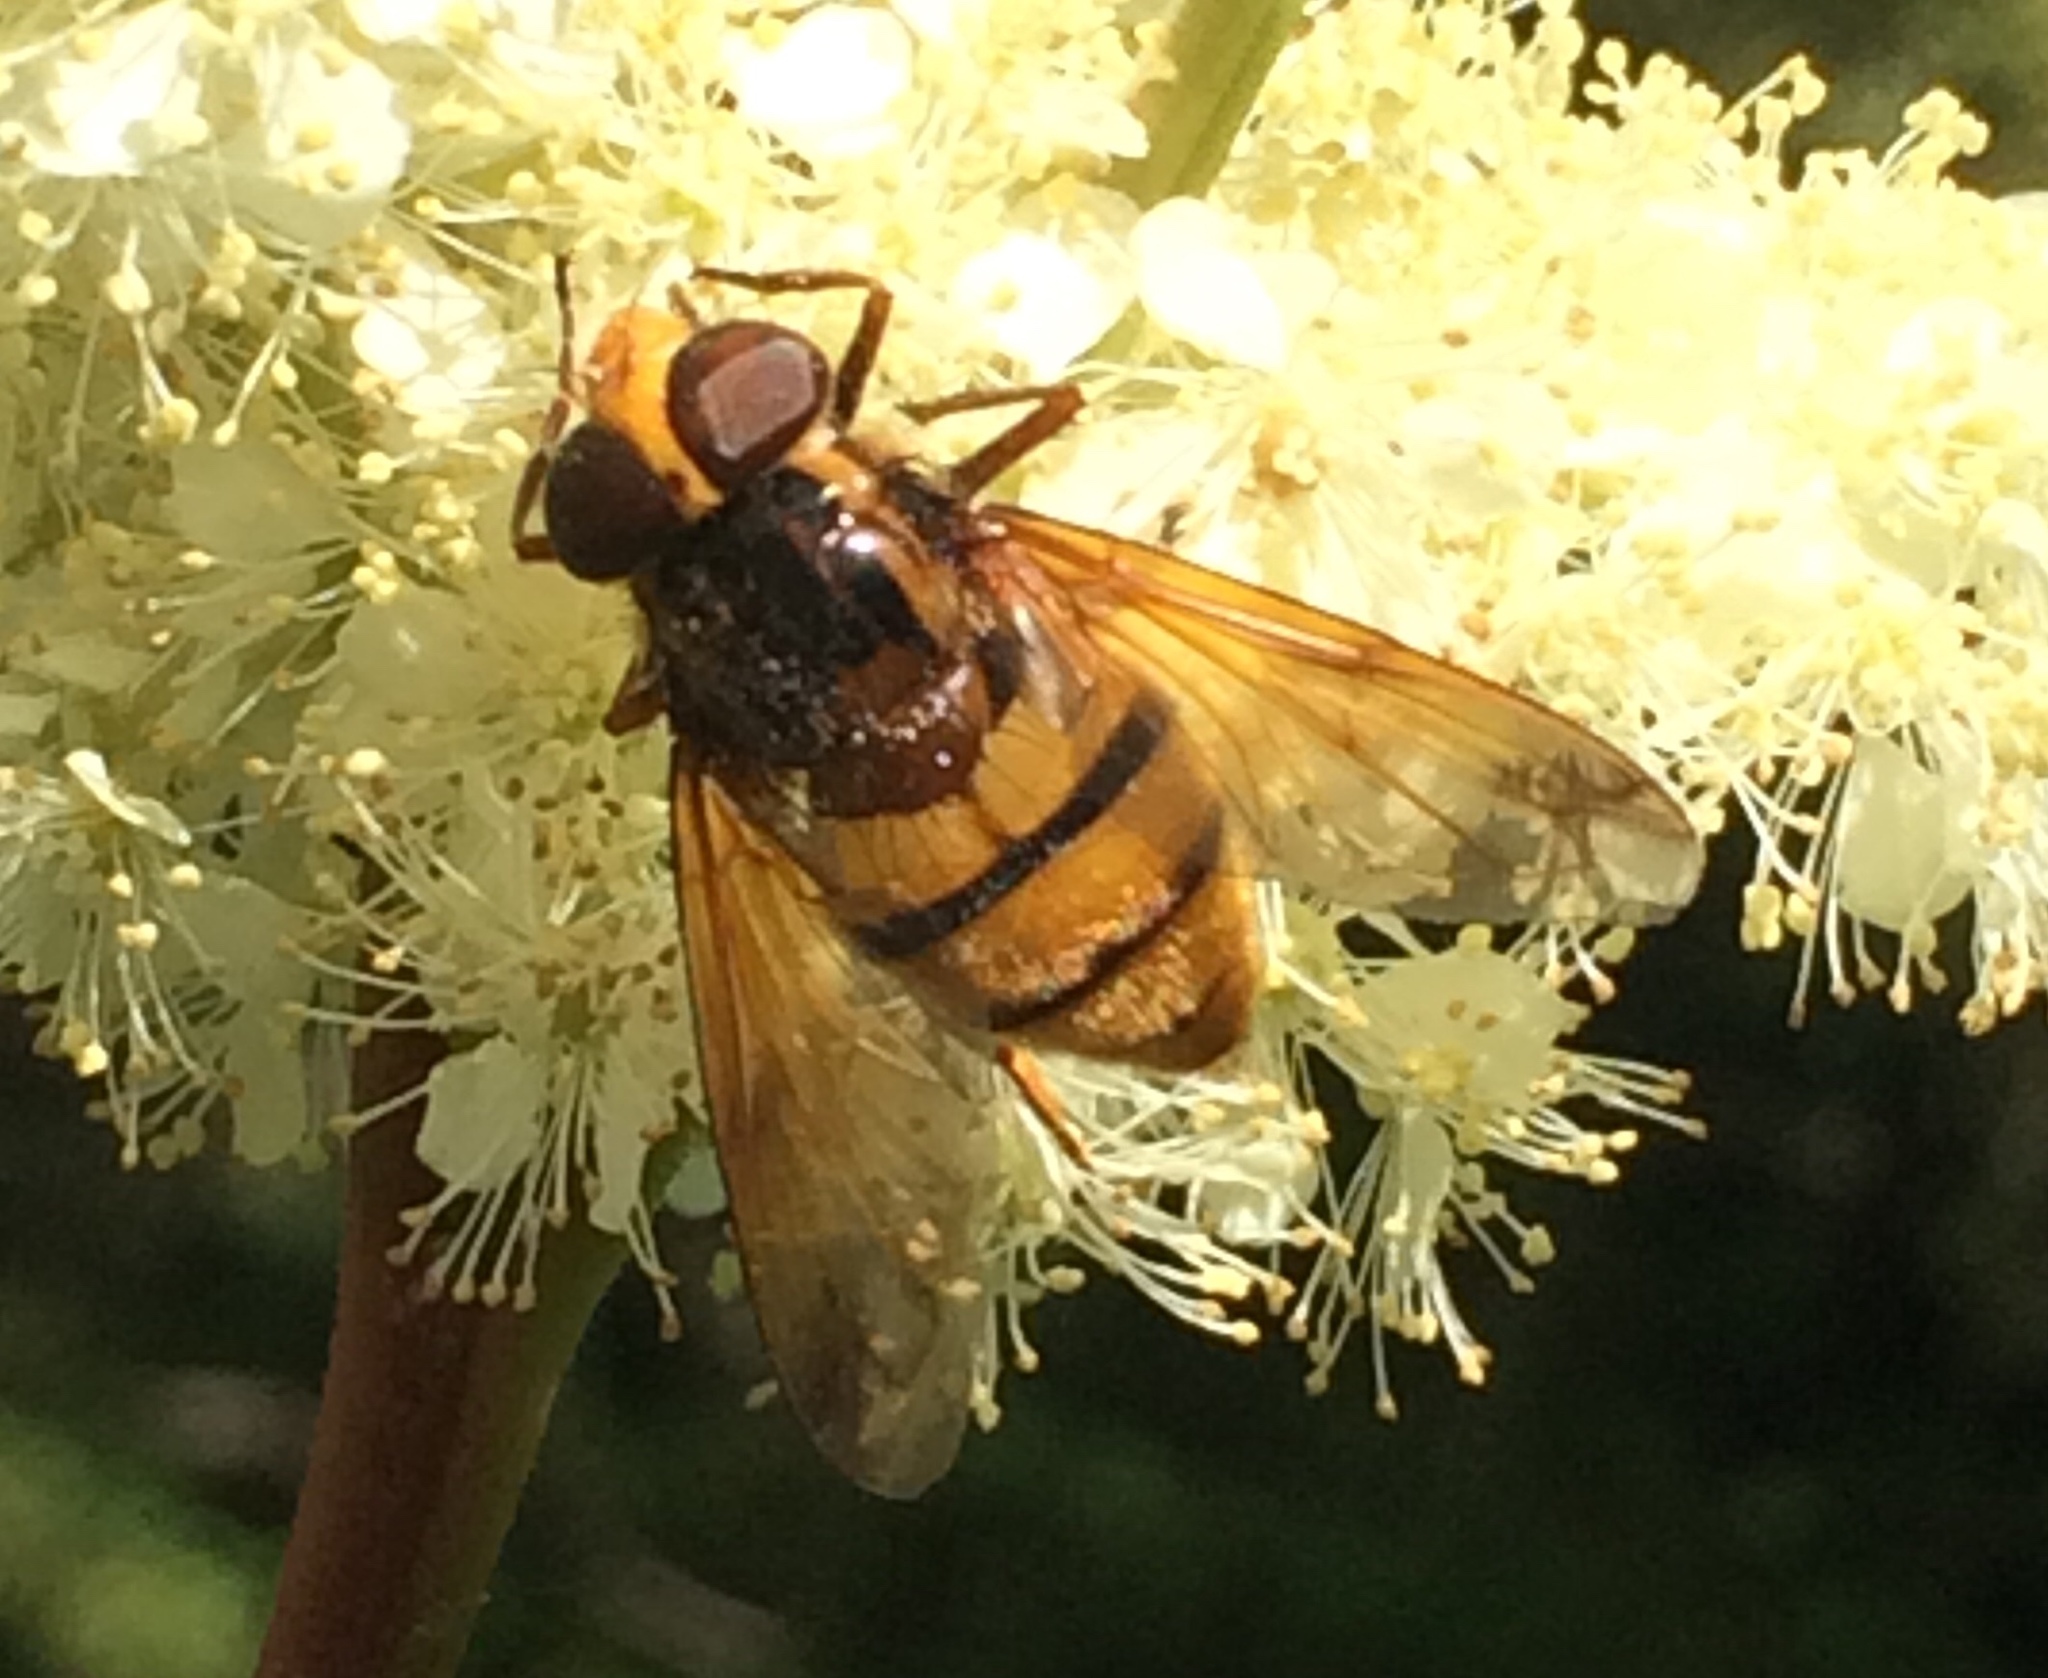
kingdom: Animalia
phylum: Arthropoda
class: Insecta
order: Diptera
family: Syrphidae
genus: Volucella
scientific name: Volucella inanis
